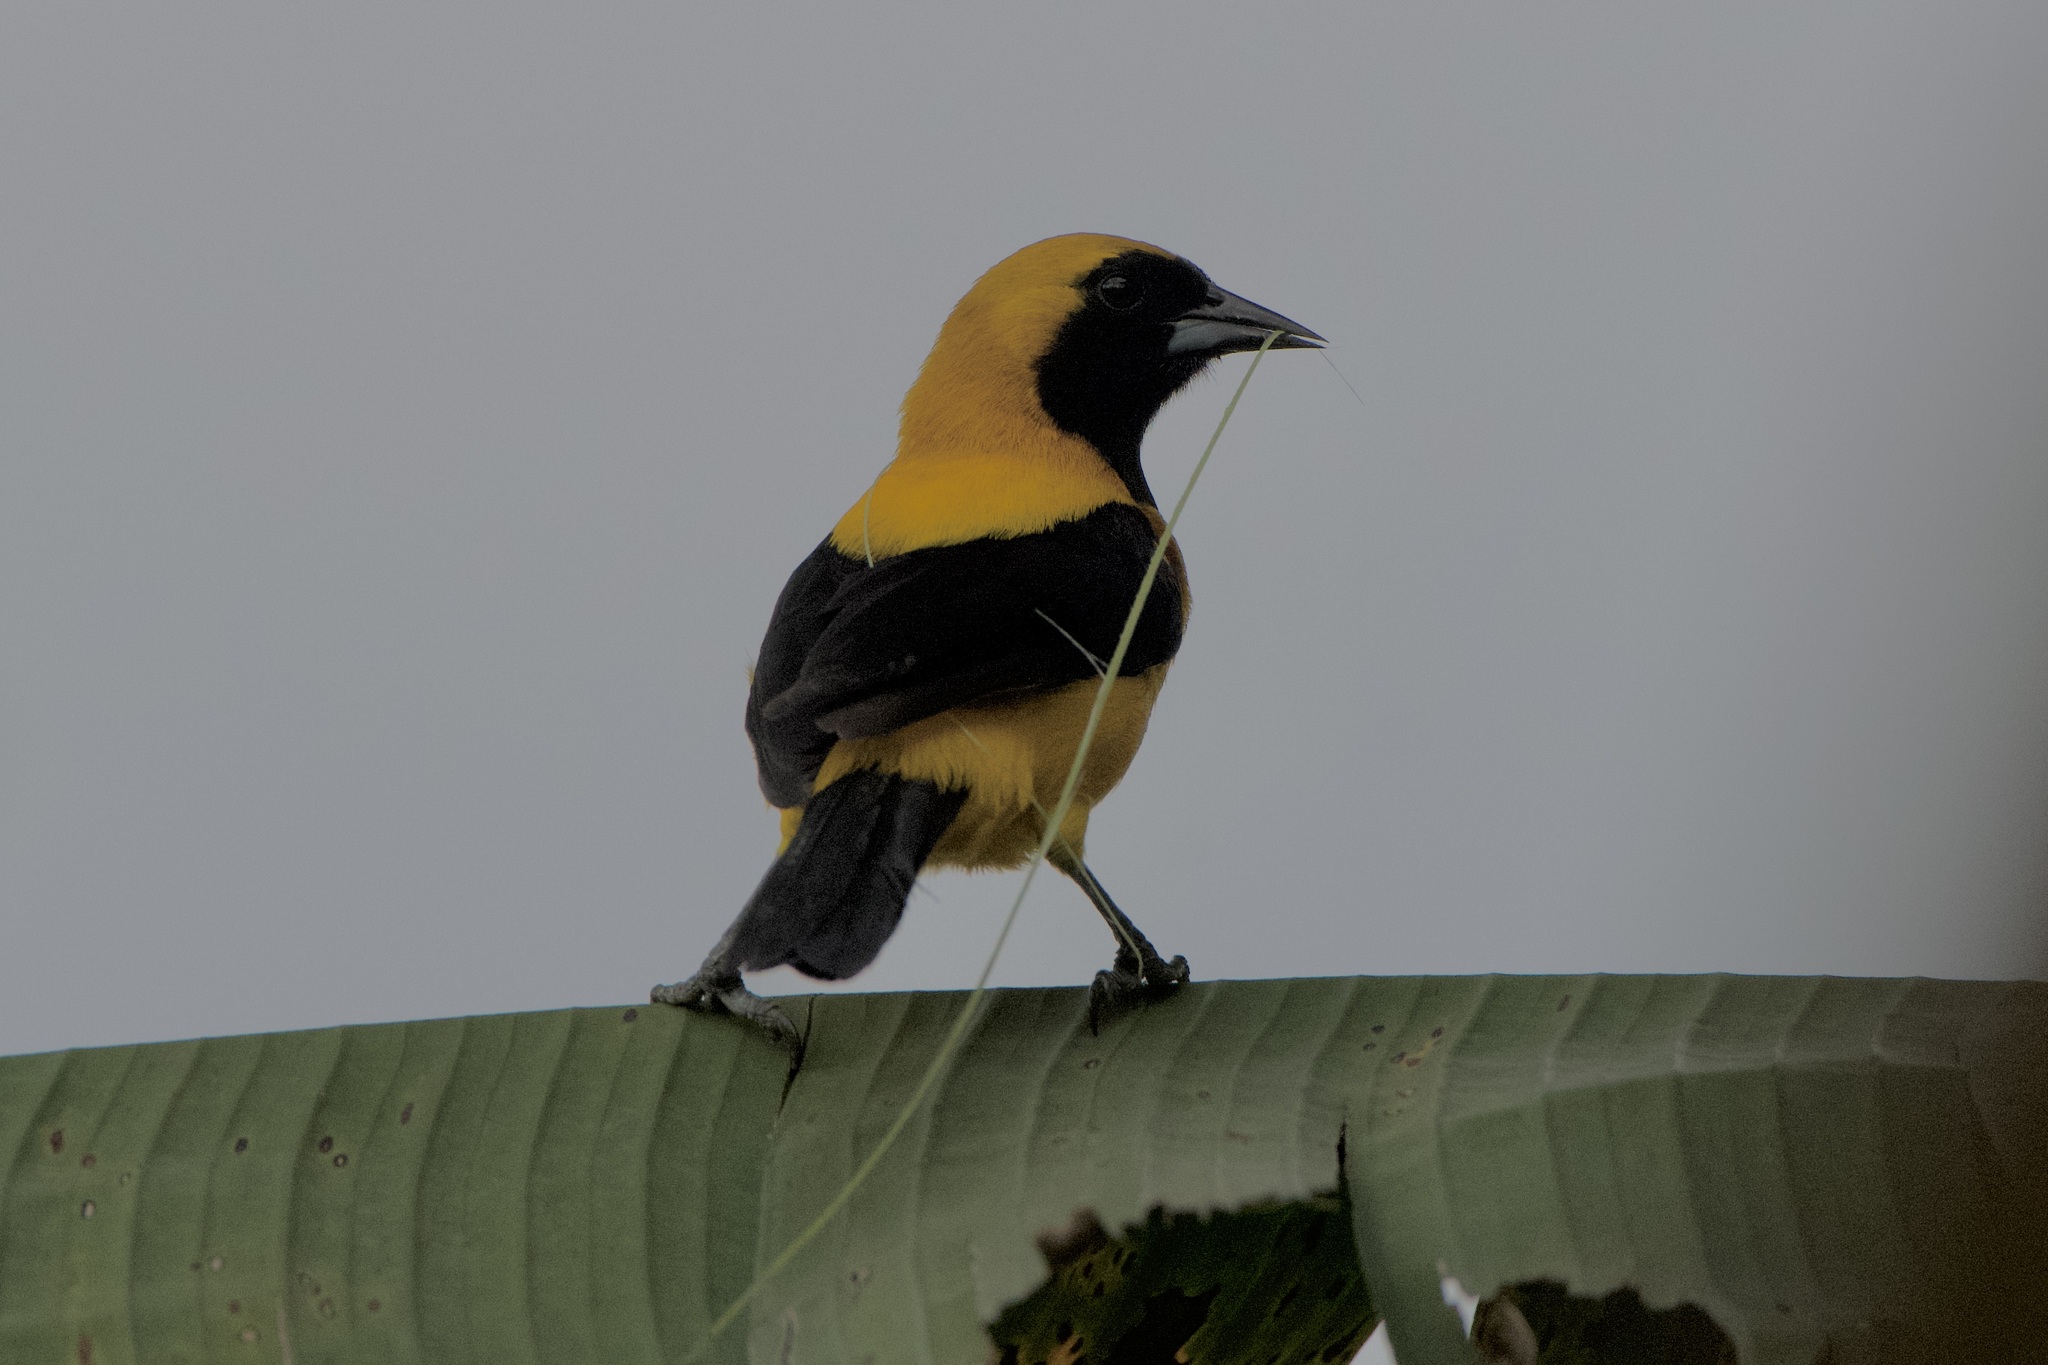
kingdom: Animalia
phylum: Chordata
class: Aves
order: Passeriformes
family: Icteridae
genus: Icterus
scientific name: Icterus chrysater
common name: Yellow-backed oriole
